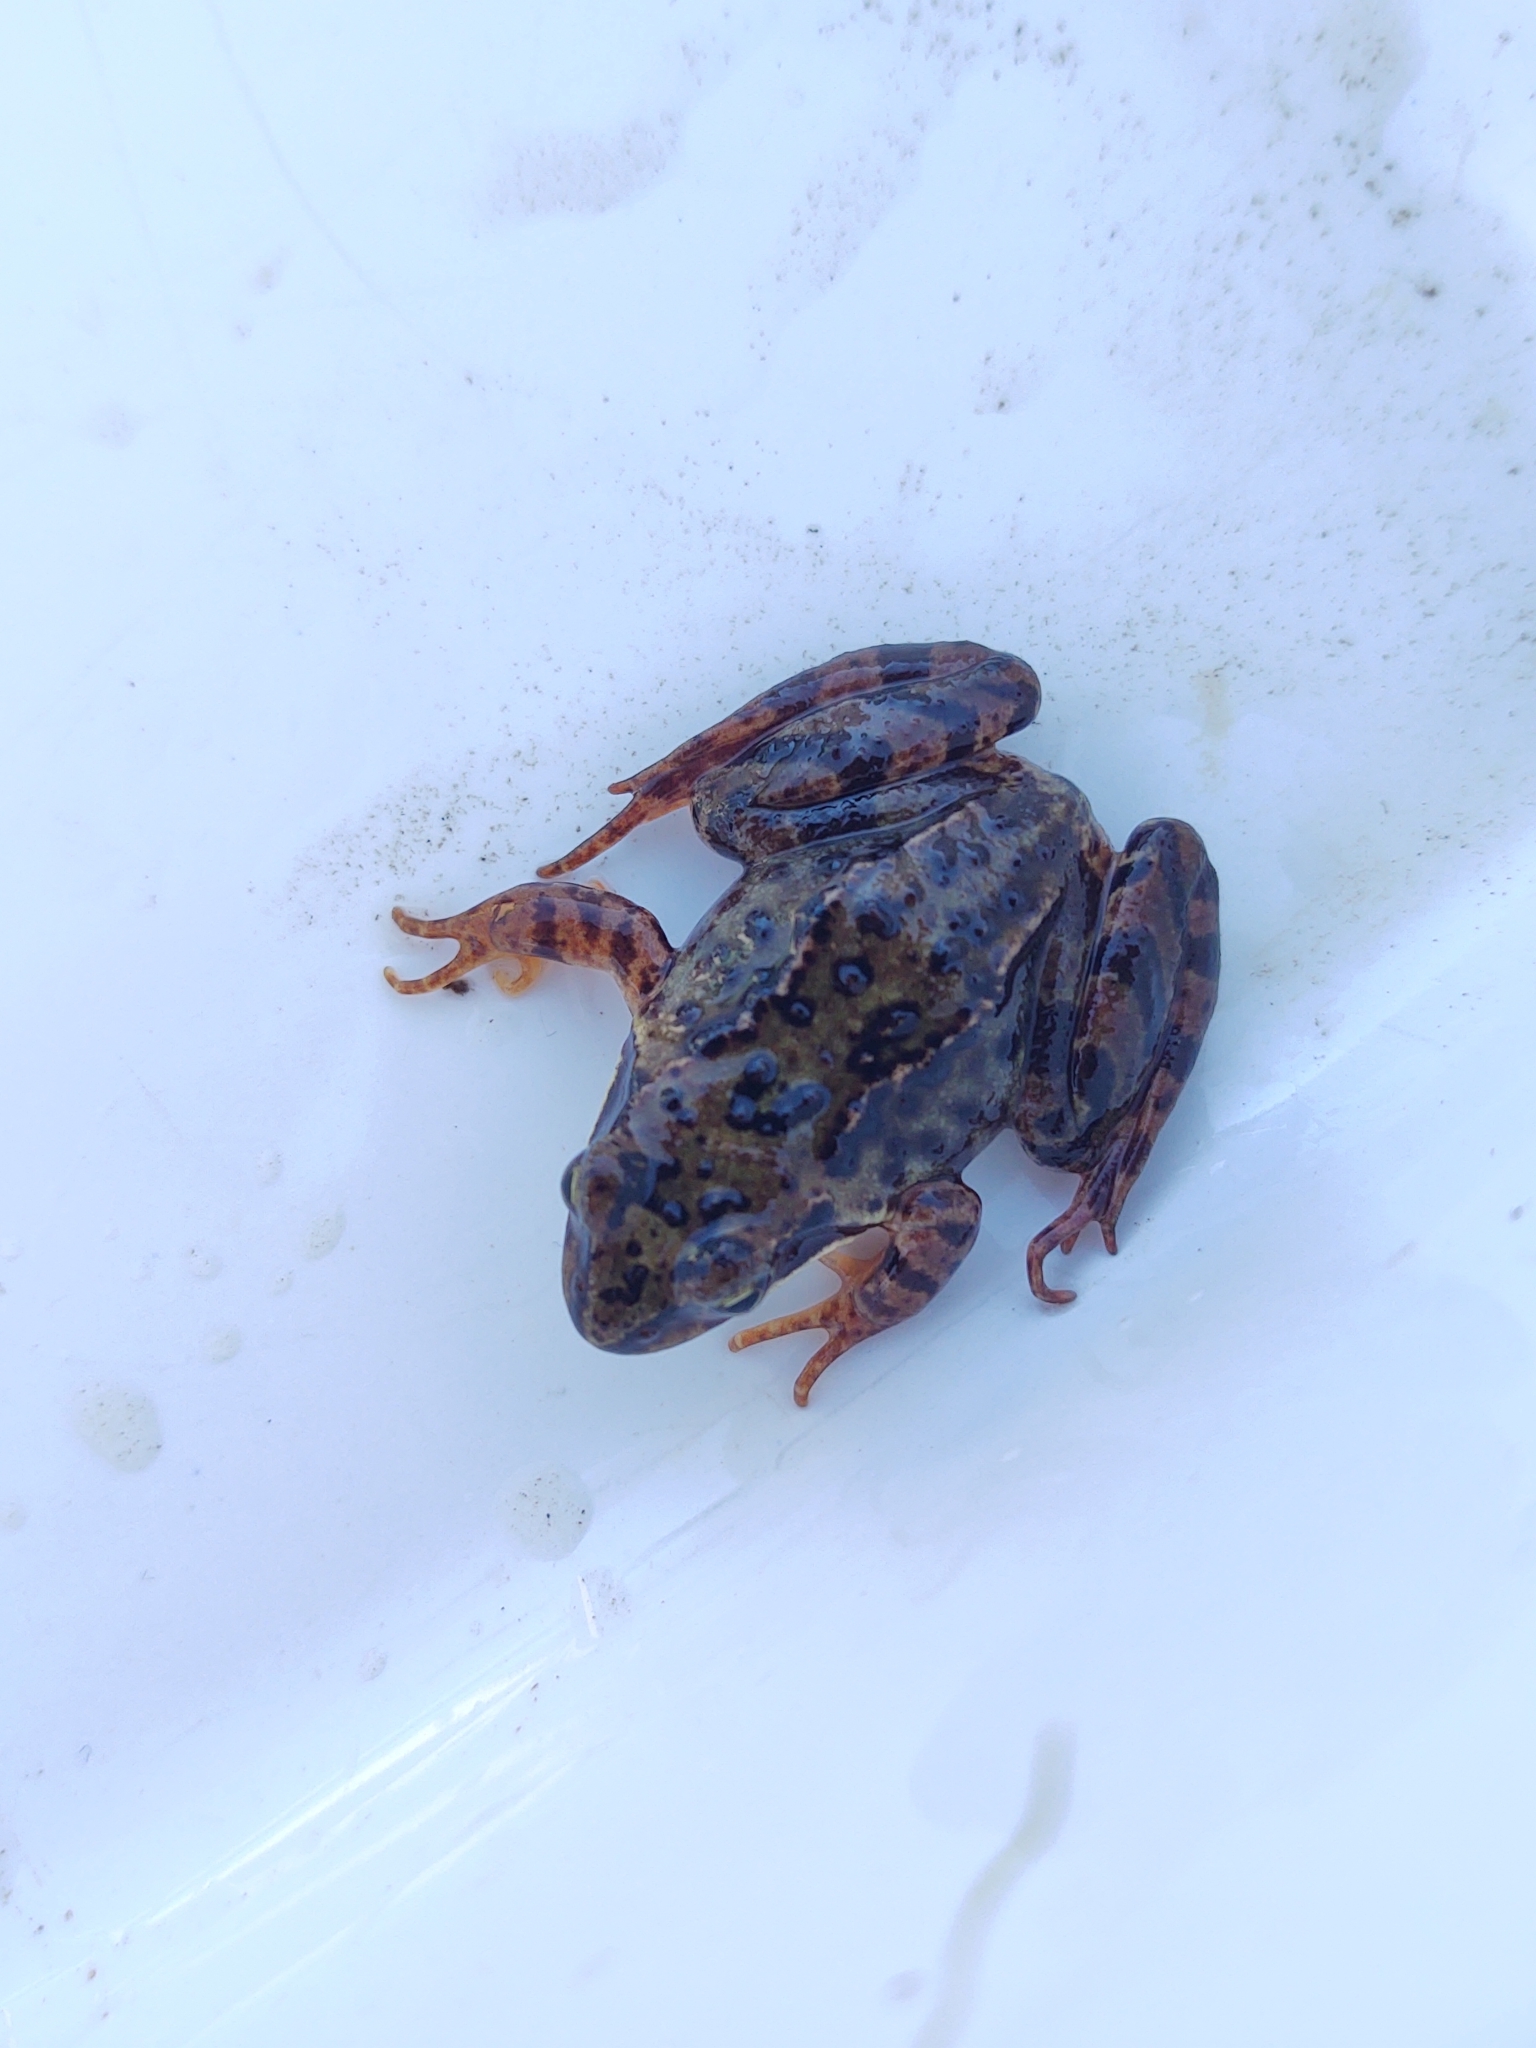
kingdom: Animalia
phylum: Chordata
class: Amphibia
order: Anura
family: Ranidae
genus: Rana
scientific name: Rana temporaria
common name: Common frog
